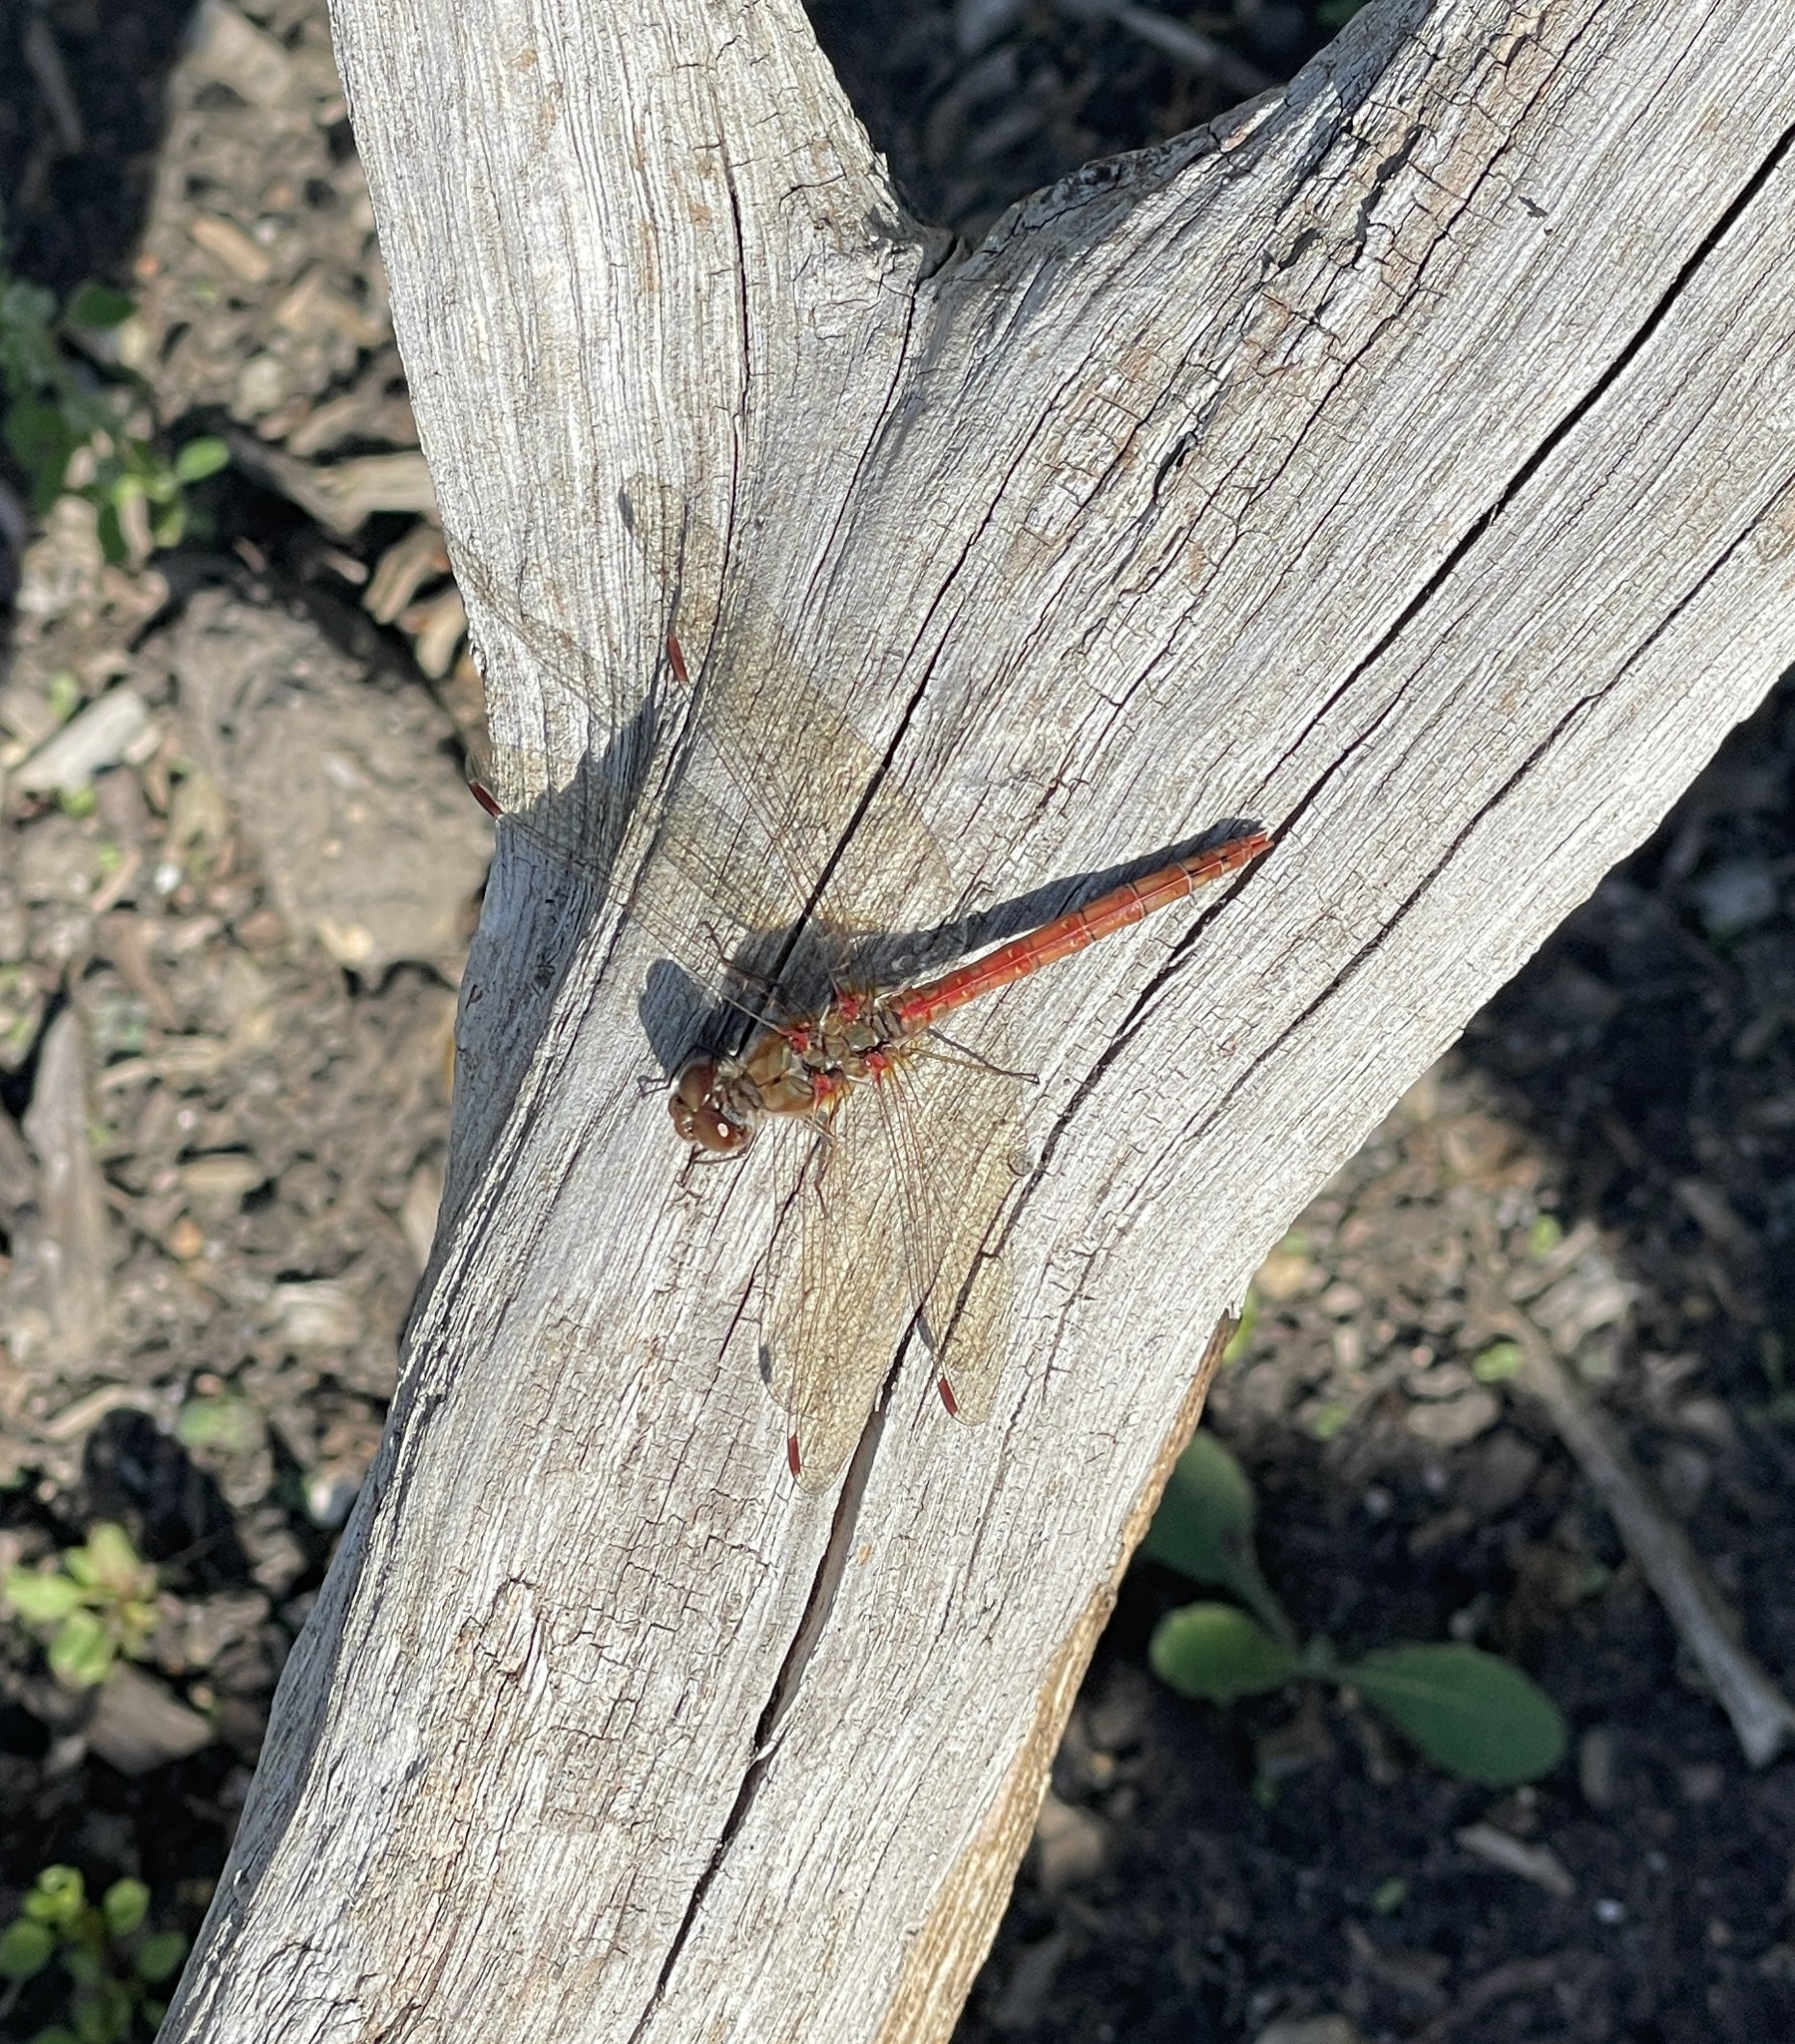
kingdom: Animalia
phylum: Arthropoda
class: Insecta
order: Odonata
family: Libellulidae
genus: Sympetrum
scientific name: Sympetrum striolatum
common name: Common darter
